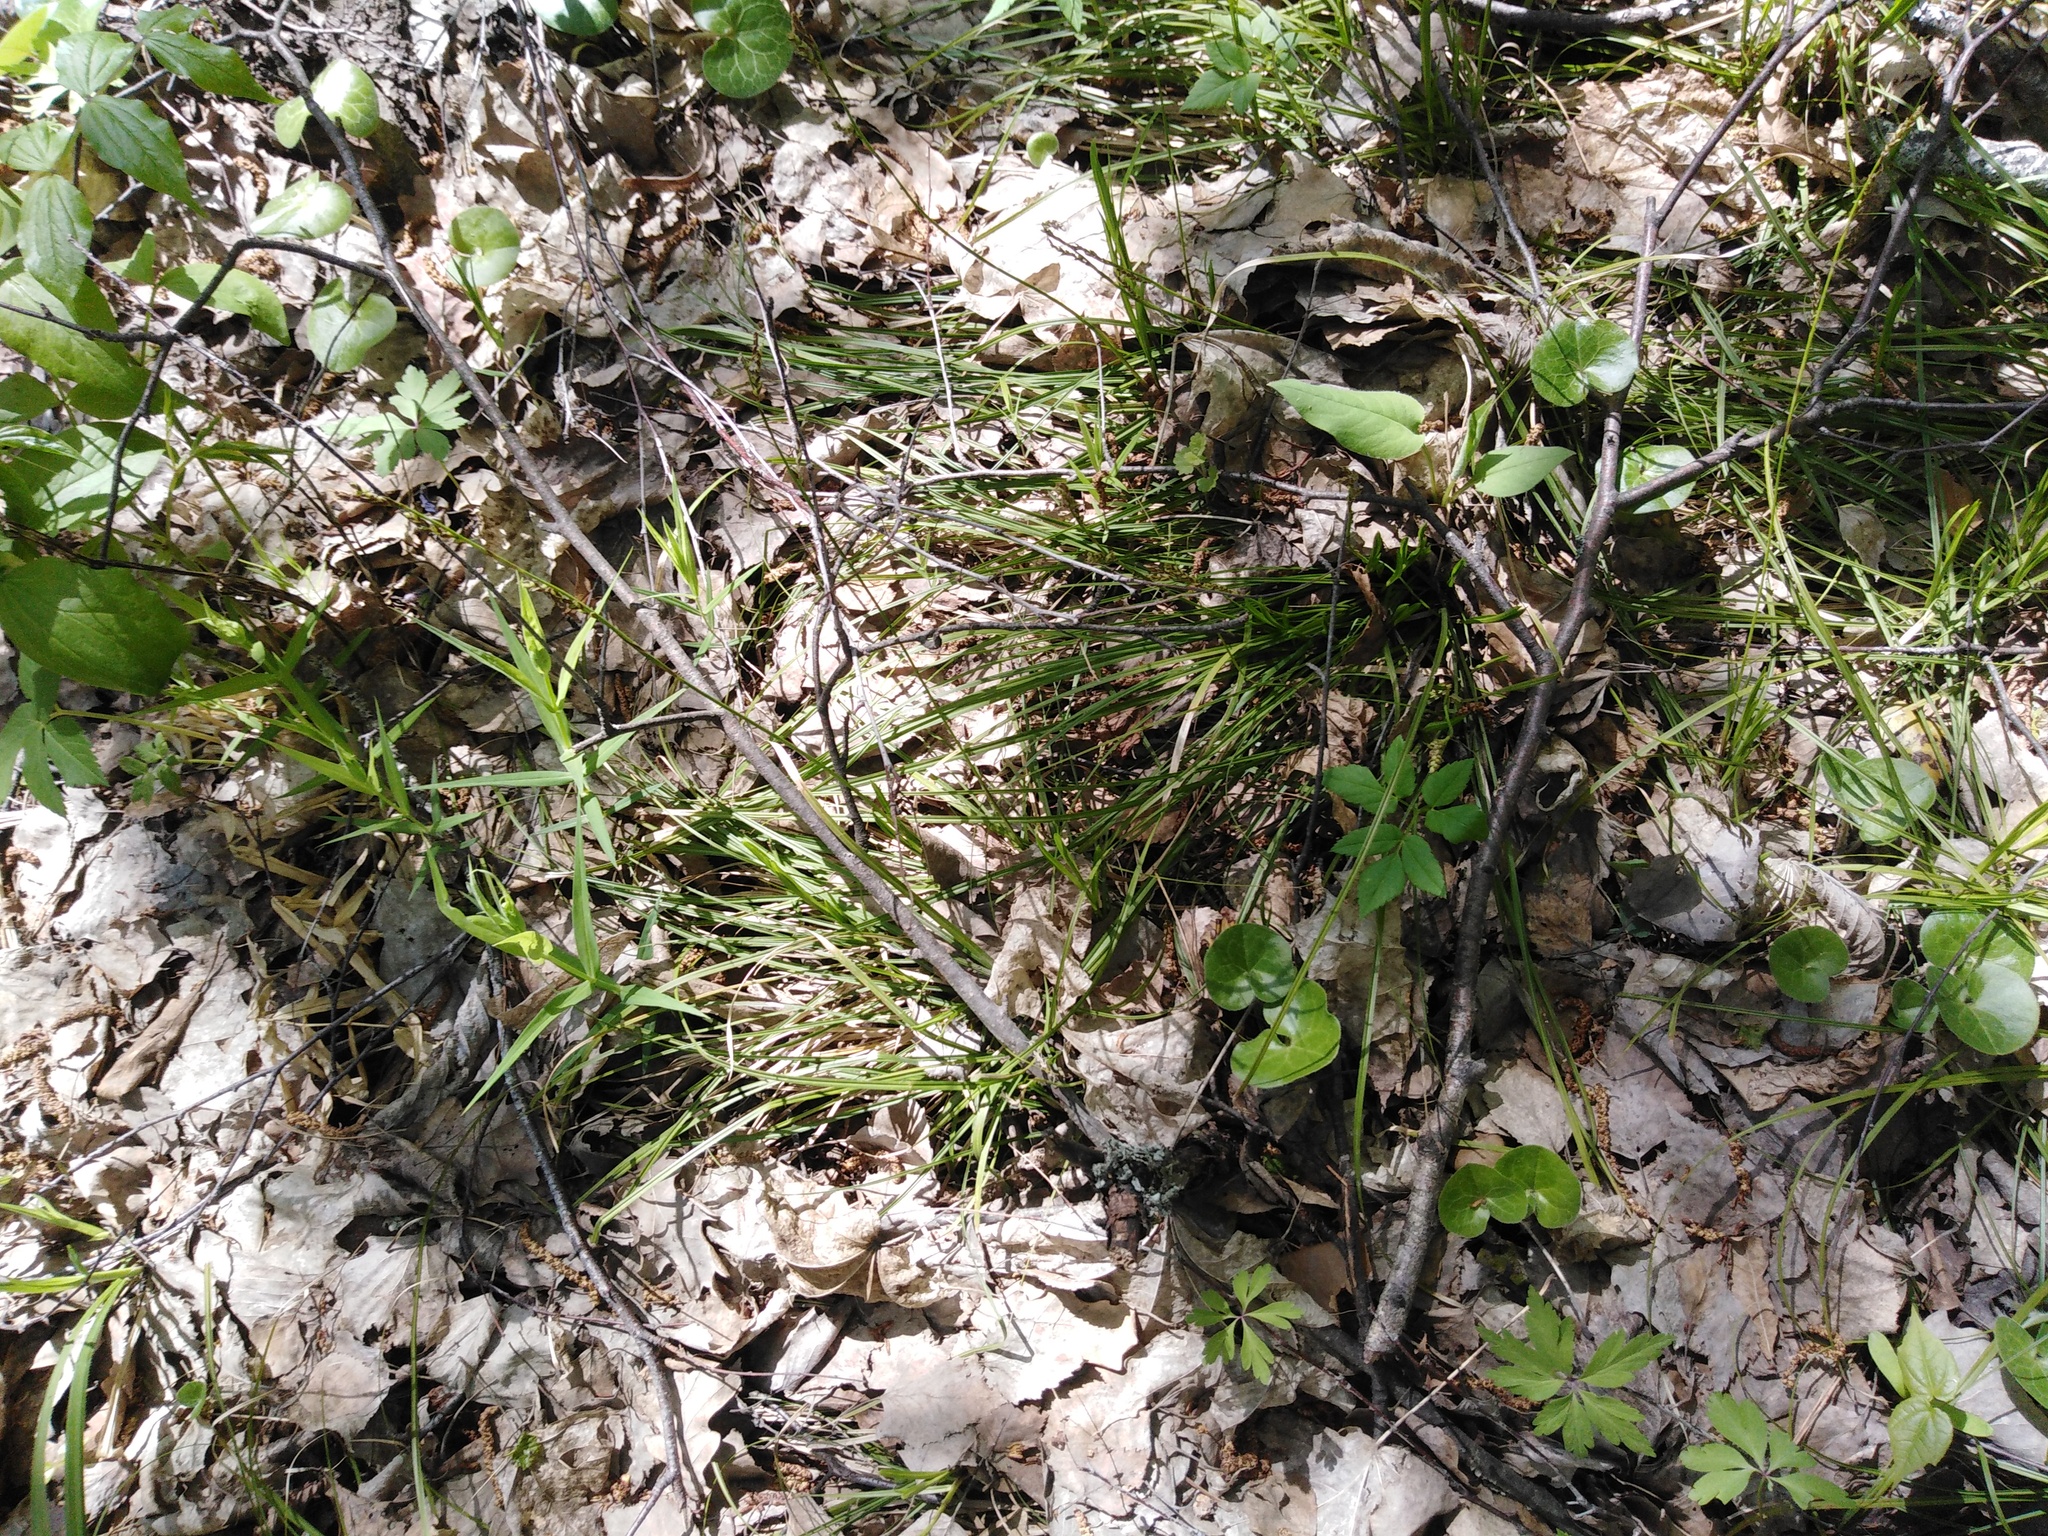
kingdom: Plantae
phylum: Tracheophyta
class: Liliopsida
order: Poales
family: Cyperaceae
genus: Carex
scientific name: Carex rhizina
